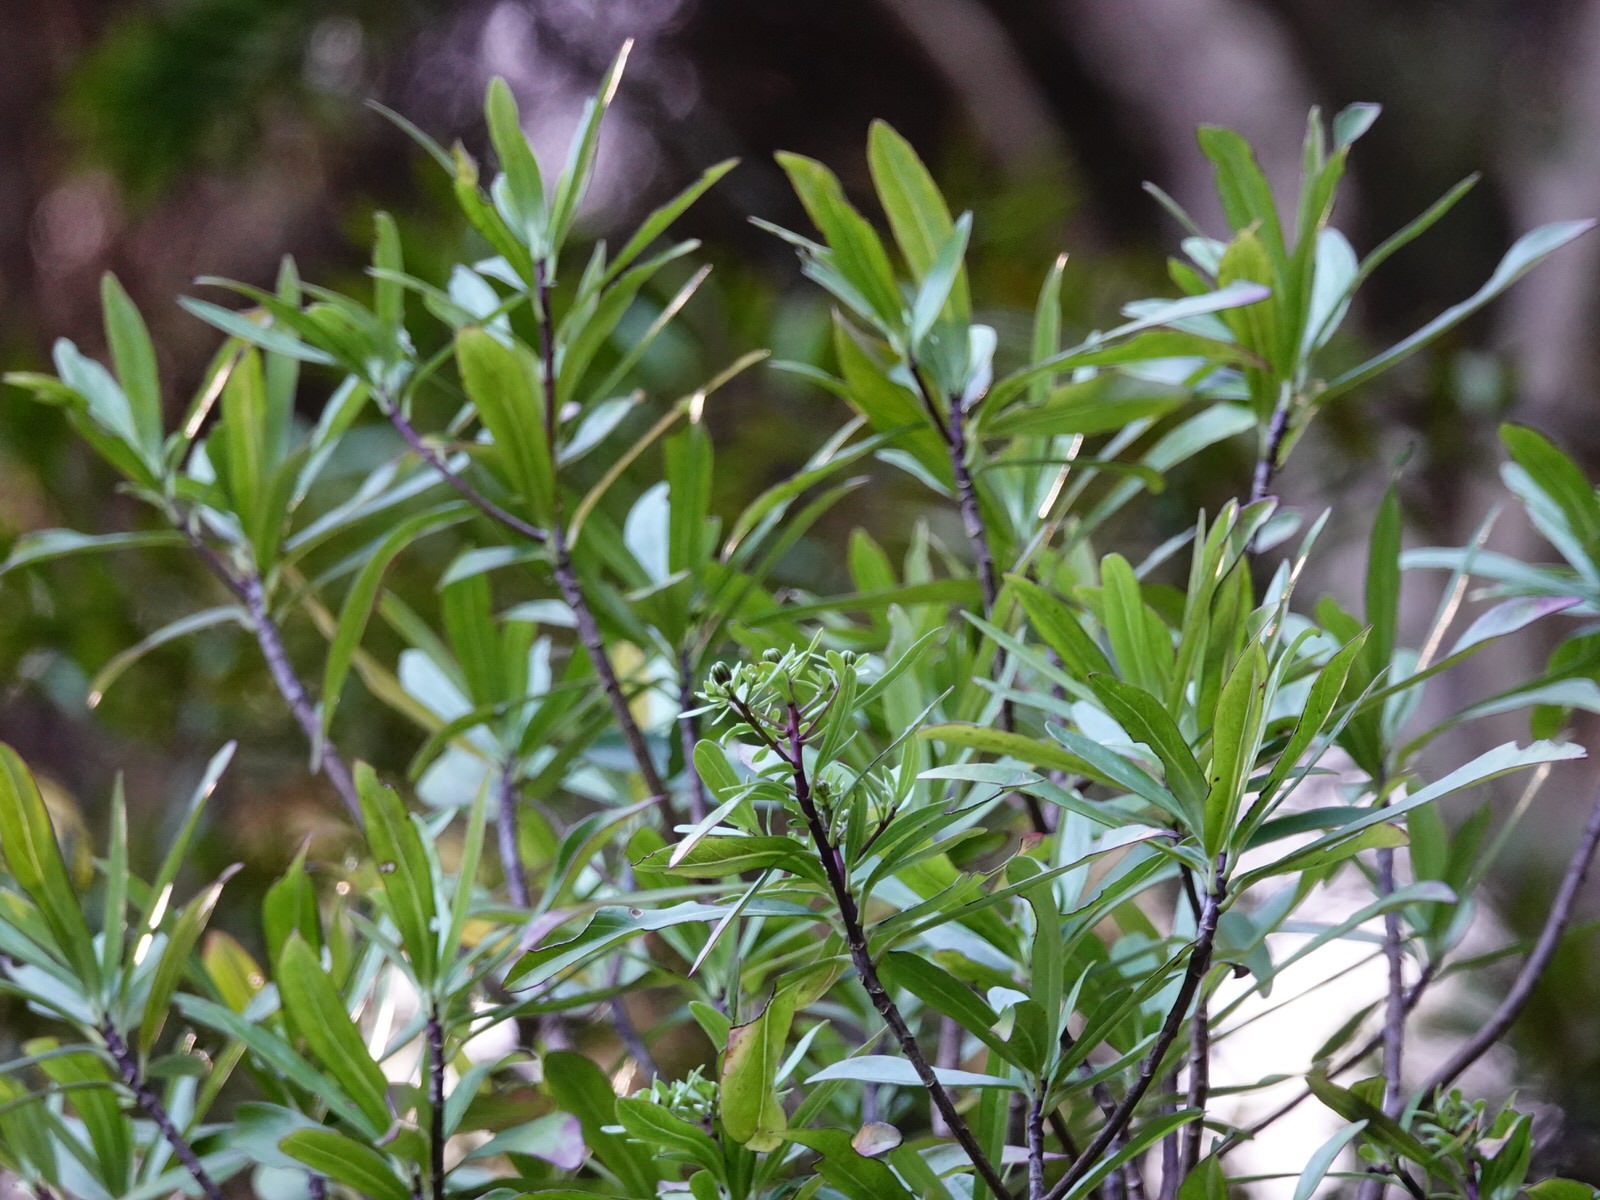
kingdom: Plantae
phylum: Tracheophyta
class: Magnoliopsida
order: Asterales
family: Asteraceae
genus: Brachyglottis
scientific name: Brachyglottis kirkii
